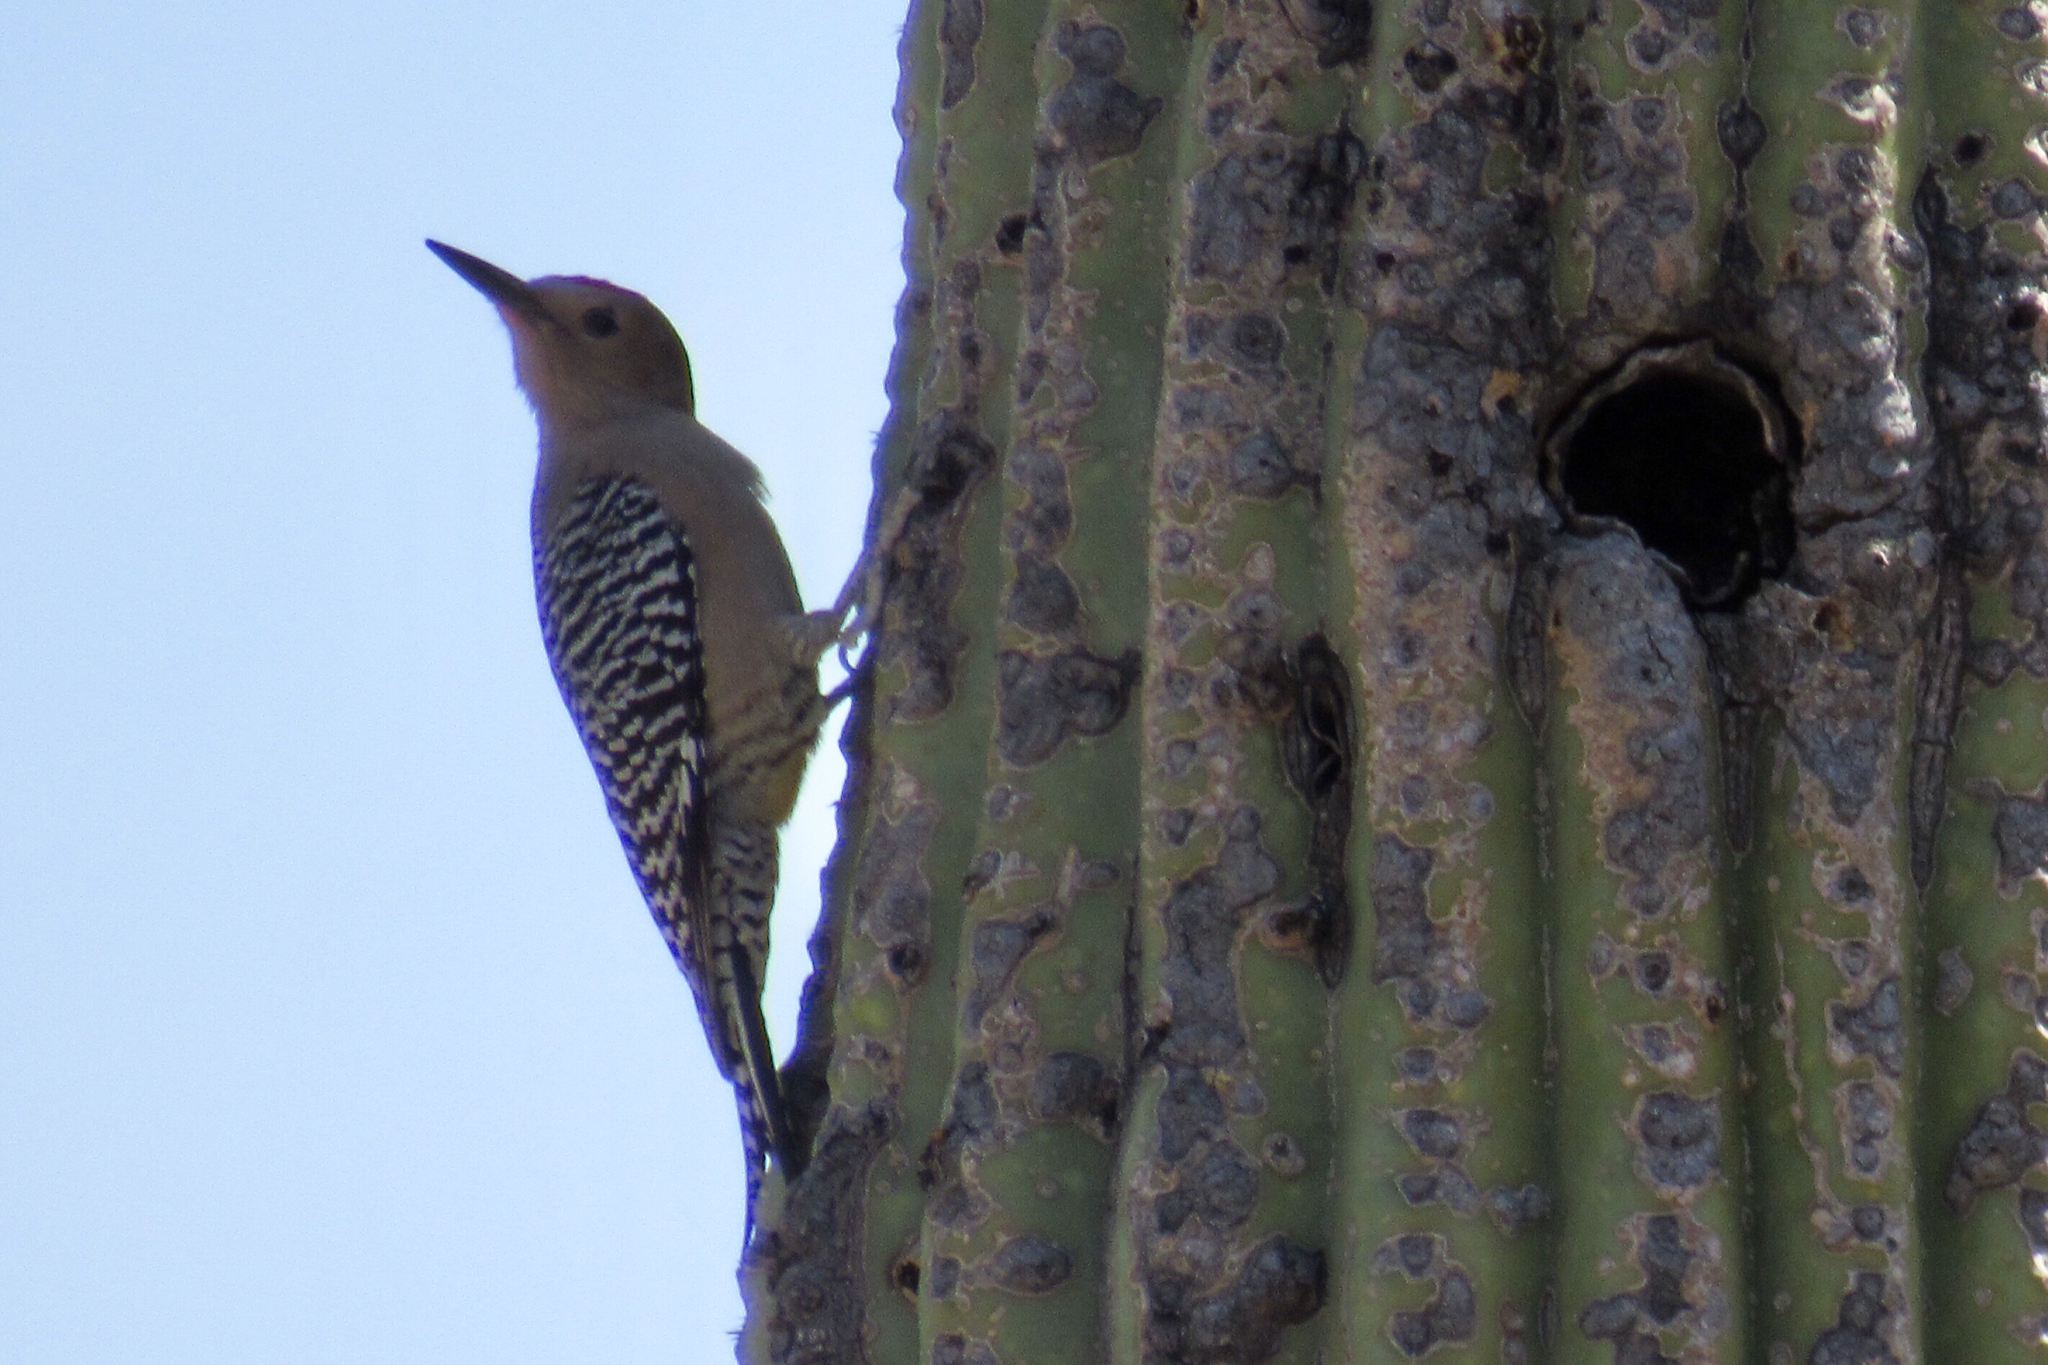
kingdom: Animalia
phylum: Chordata
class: Aves
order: Piciformes
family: Picidae
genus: Melanerpes
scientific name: Melanerpes uropygialis
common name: Gila woodpecker
